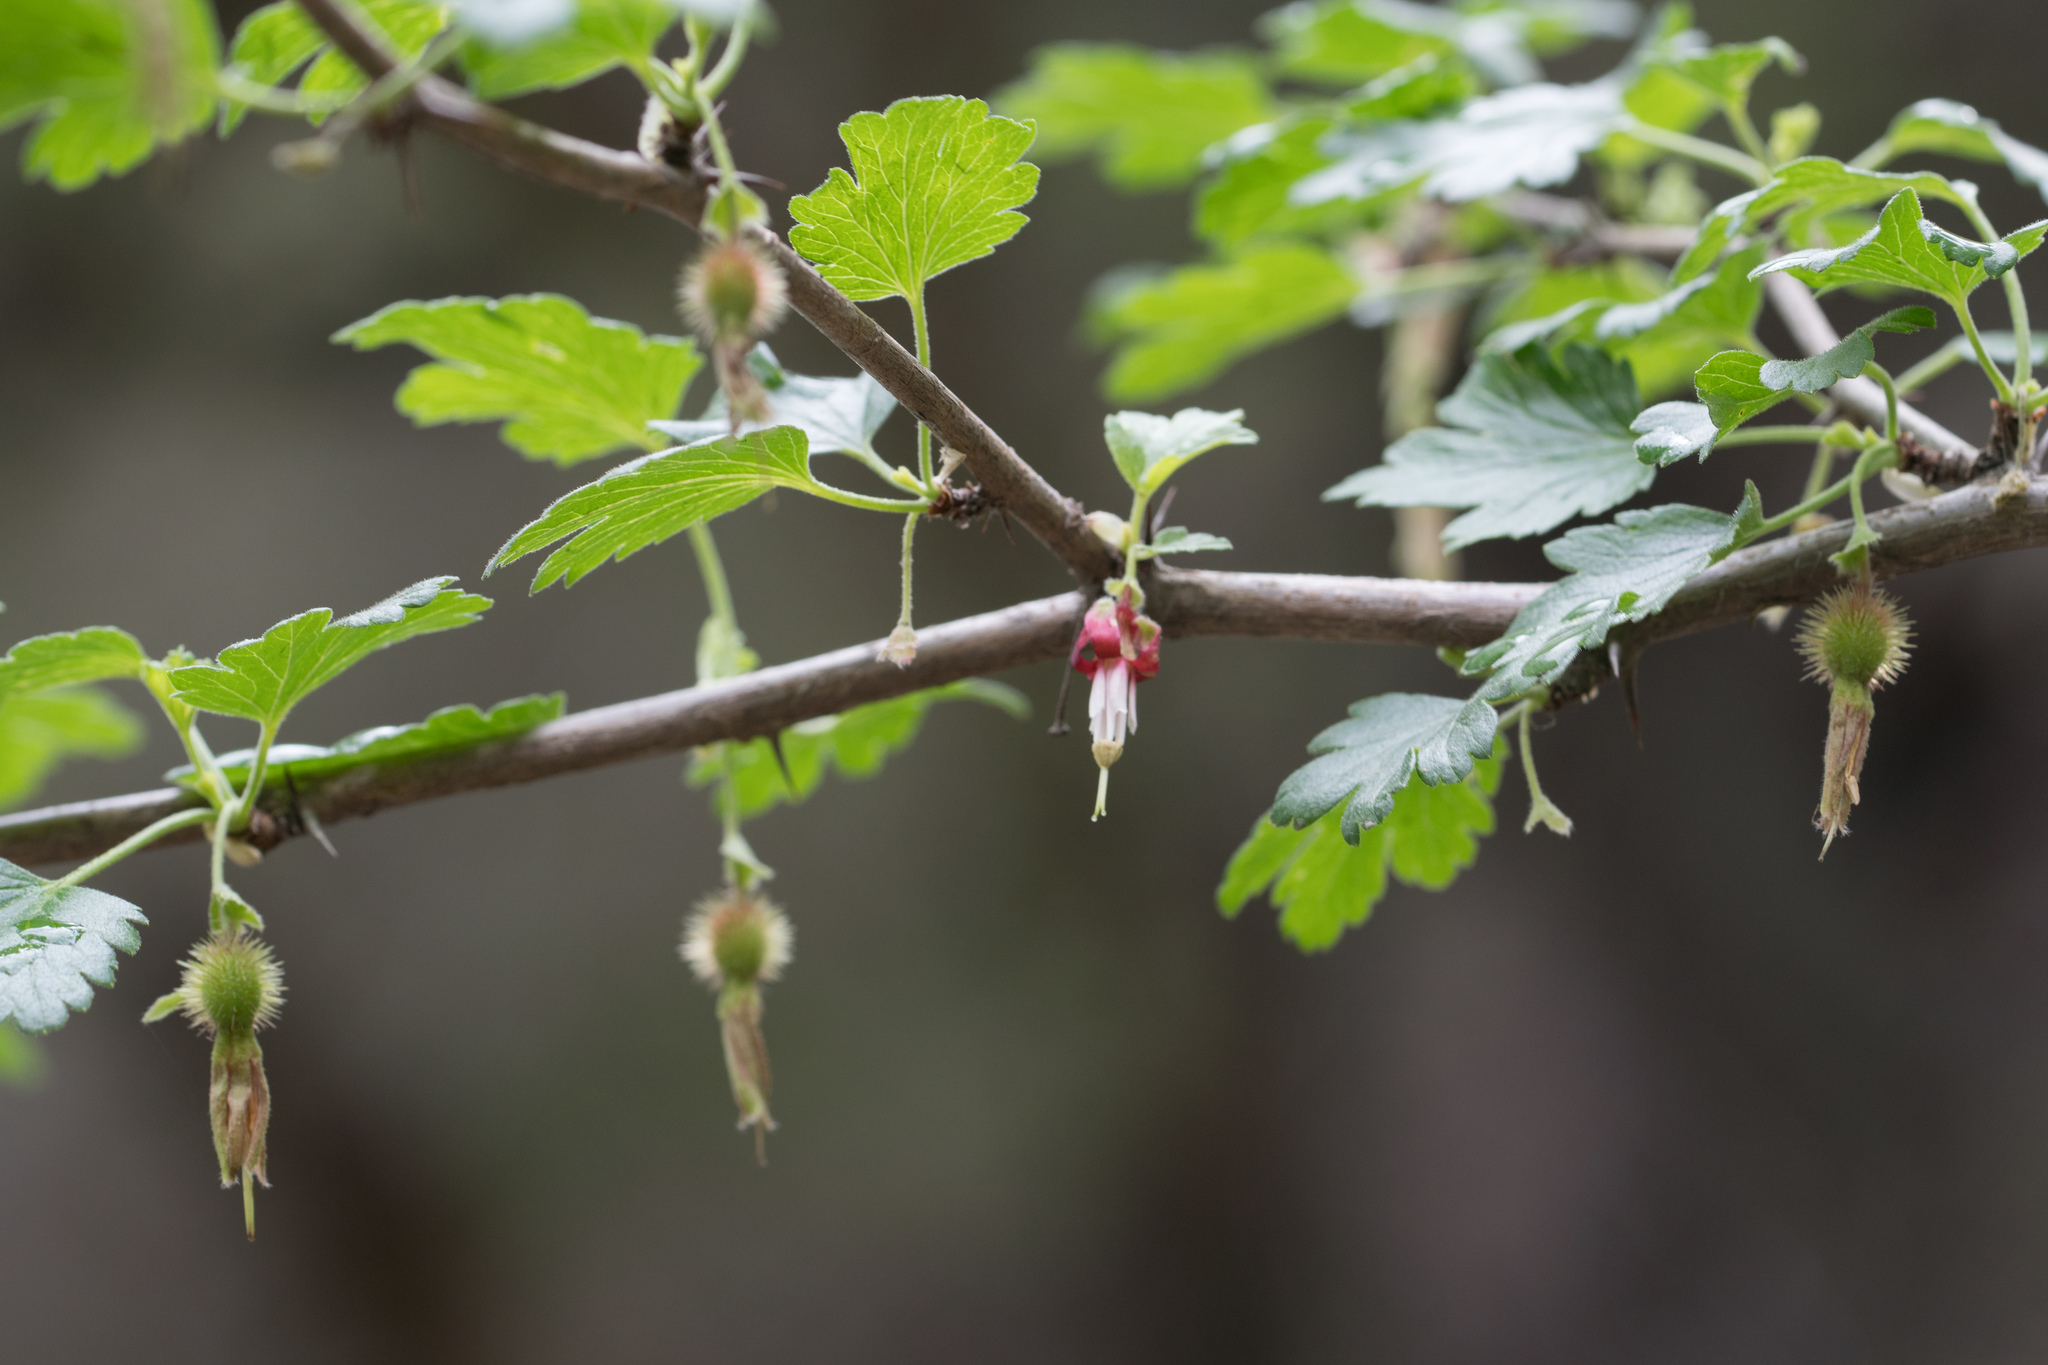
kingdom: Plantae
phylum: Tracheophyta
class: Magnoliopsida
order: Saxifragales
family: Grossulariaceae
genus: Ribes
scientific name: Ribes californicum
